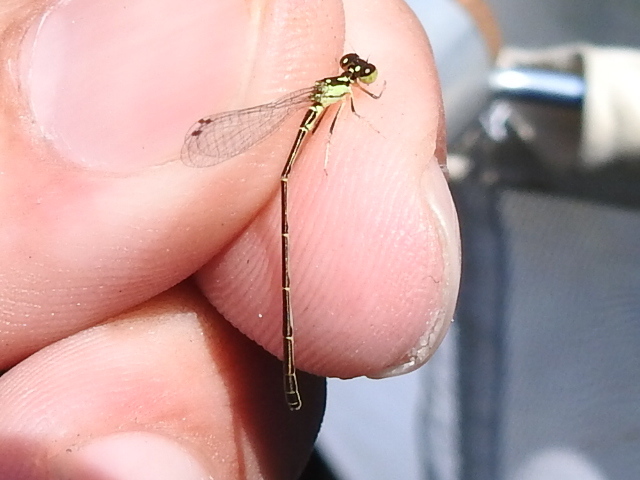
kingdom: Animalia
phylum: Arthropoda
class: Insecta
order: Odonata
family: Coenagrionidae
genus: Ischnura
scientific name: Ischnura posita
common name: Fragile forktail
